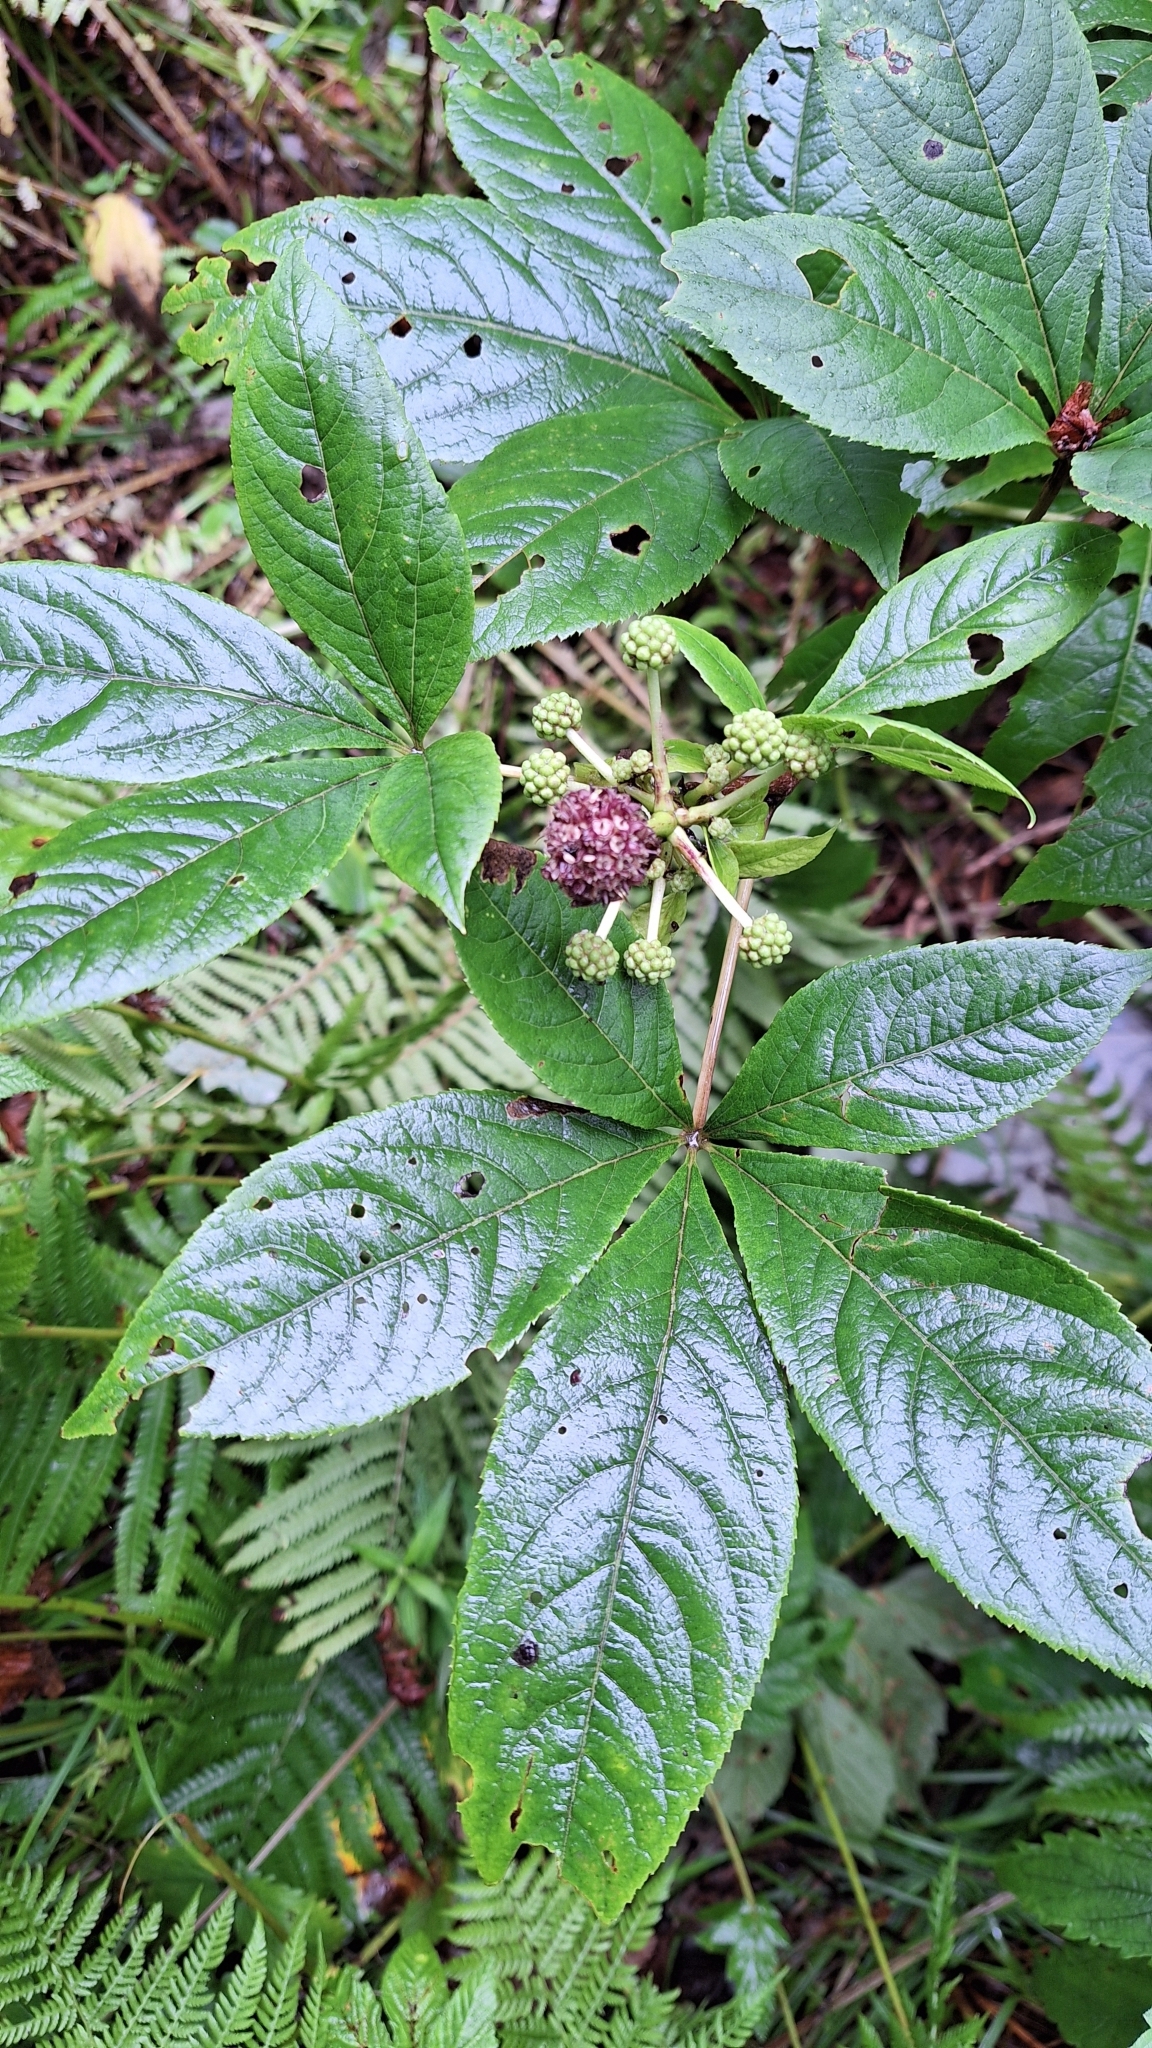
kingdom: Plantae
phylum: Tracheophyta
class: Magnoliopsida
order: Apiales
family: Araliaceae
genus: Eleutherococcus
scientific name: Eleutherococcus sessiliflorus
